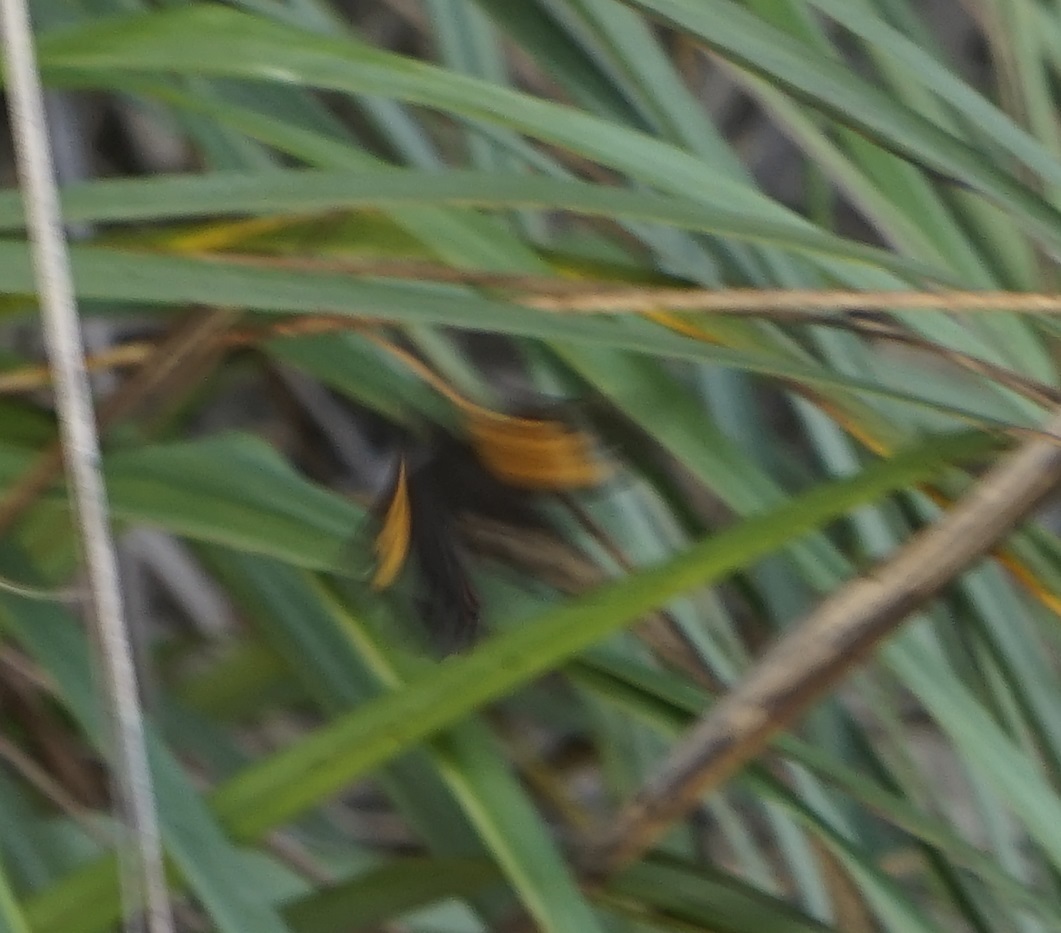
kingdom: Animalia
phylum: Arthropoda
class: Insecta
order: Lepidoptera
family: Nymphalidae
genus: Tisiphone
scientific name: Tisiphone abeona
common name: Swordgrass brown
